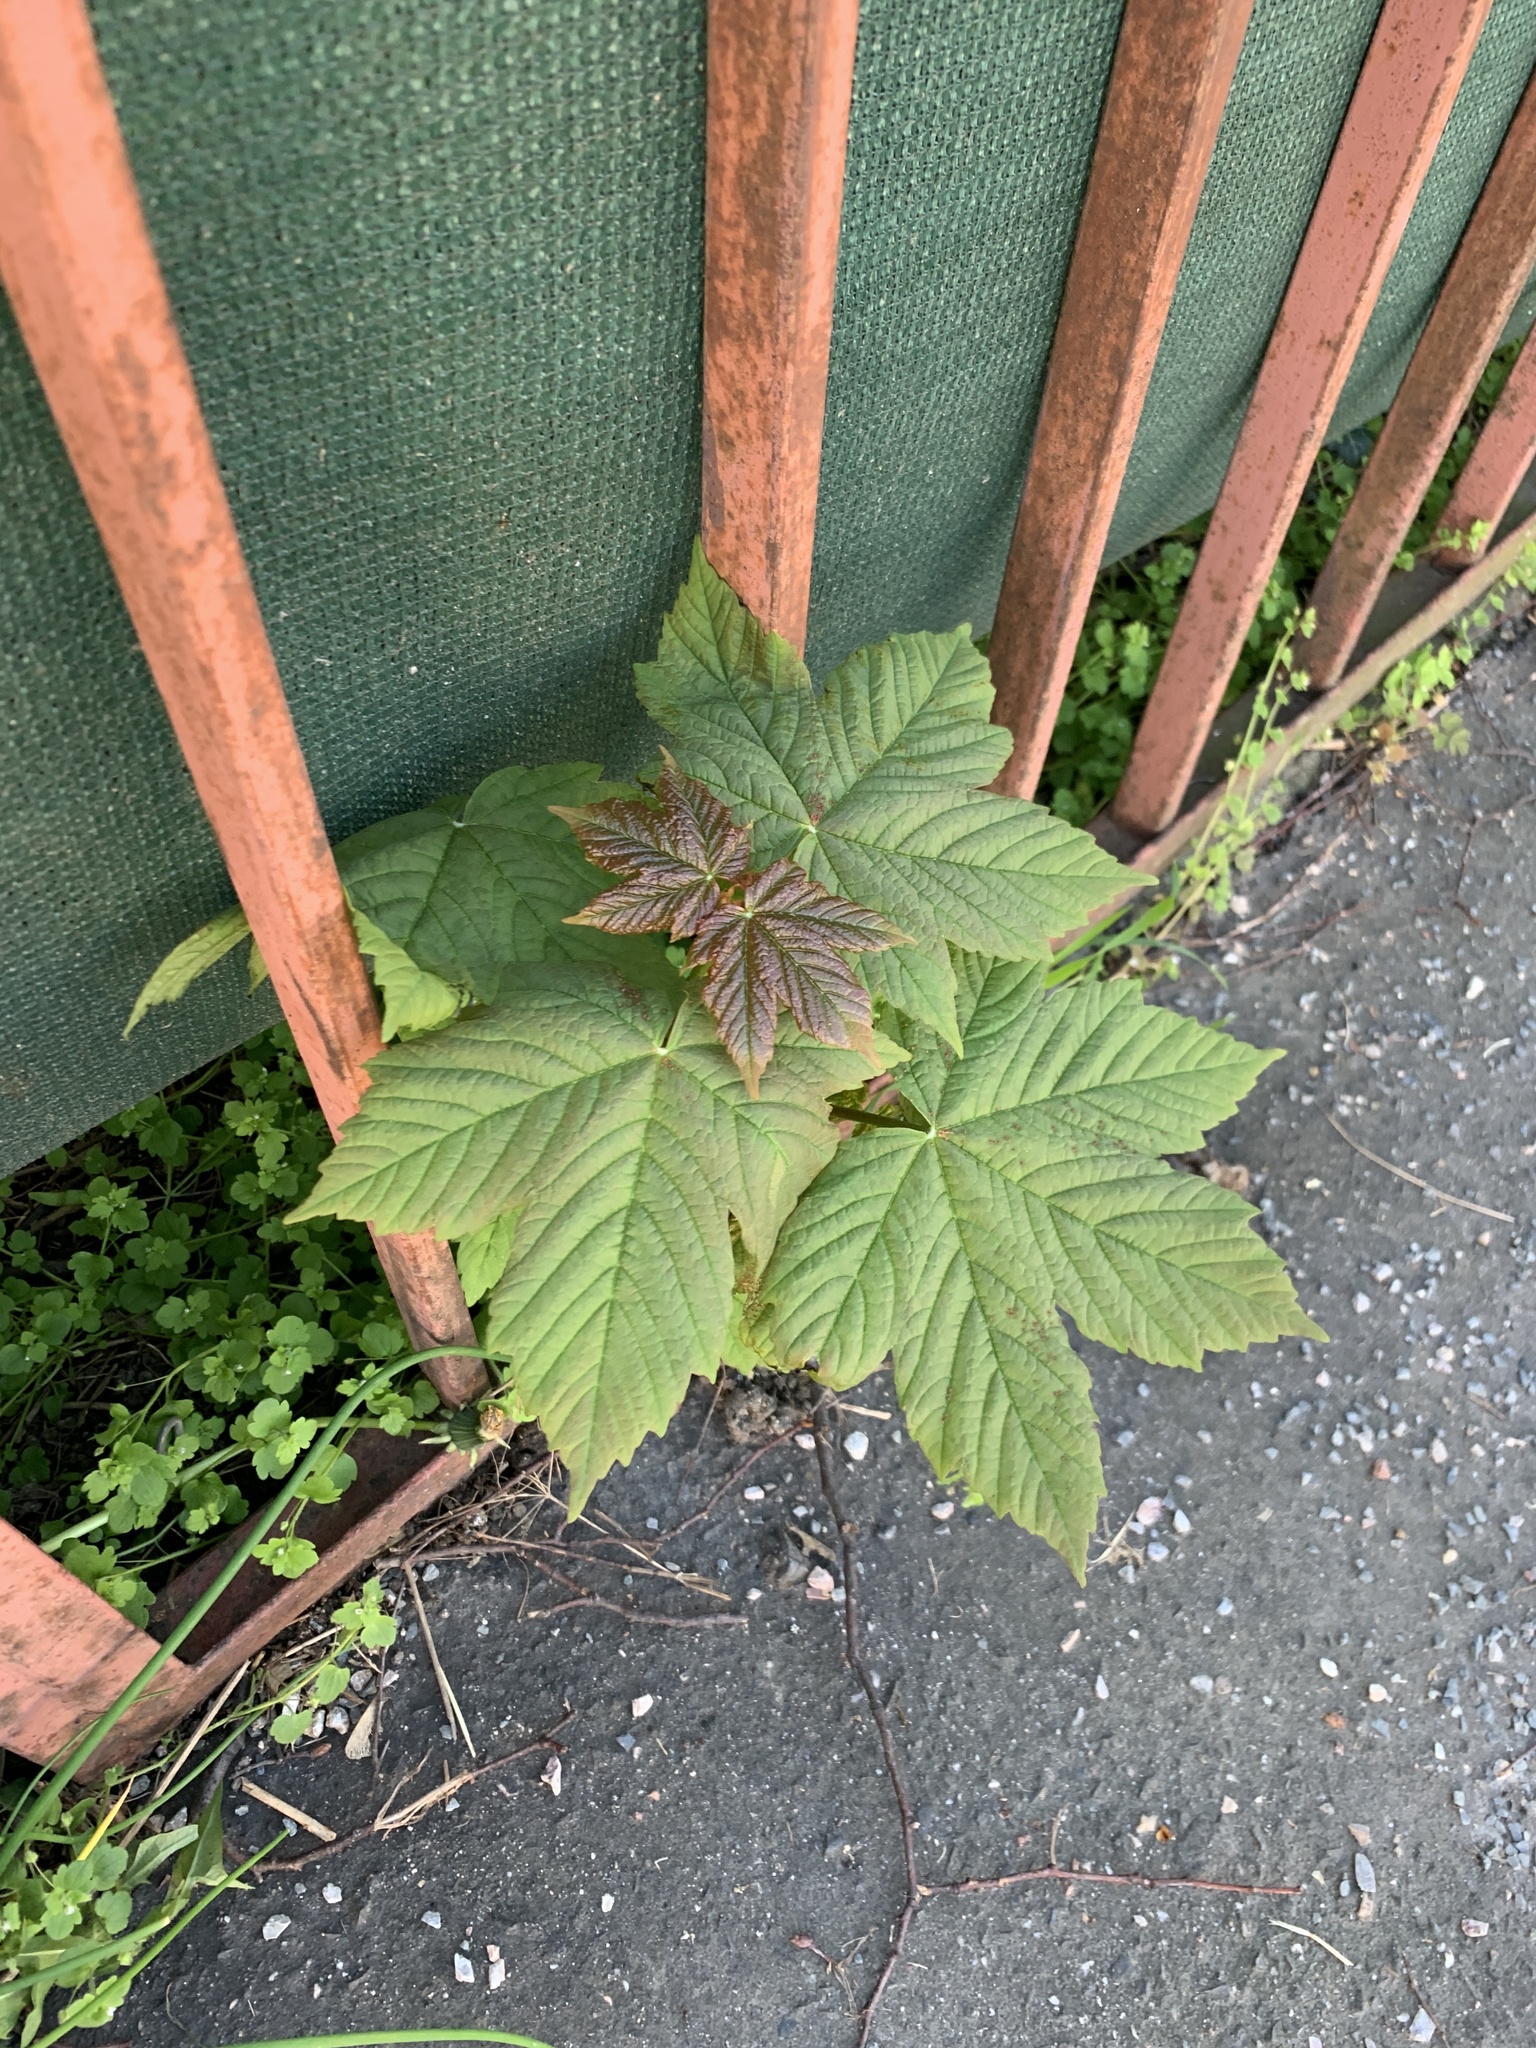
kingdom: Plantae
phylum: Tracheophyta
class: Magnoliopsida
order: Sapindales
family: Sapindaceae
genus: Acer
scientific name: Acer pseudoplatanus
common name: Sycamore
